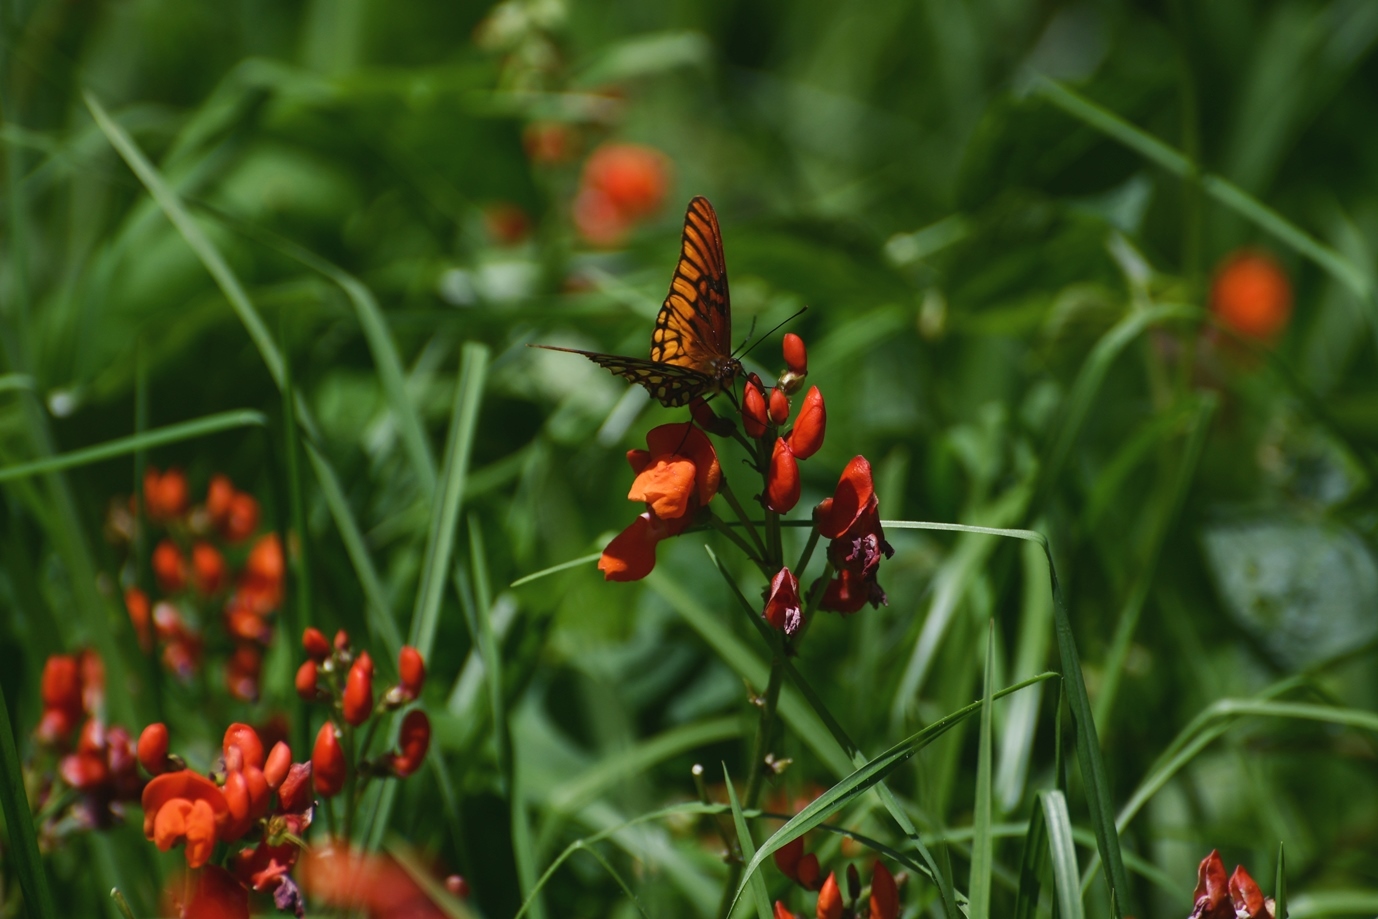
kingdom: Animalia
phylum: Arthropoda
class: Insecta
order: Lepidoptera
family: Nymphalidae
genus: Dione
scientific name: Dione moneta
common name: Mexican silverspot
